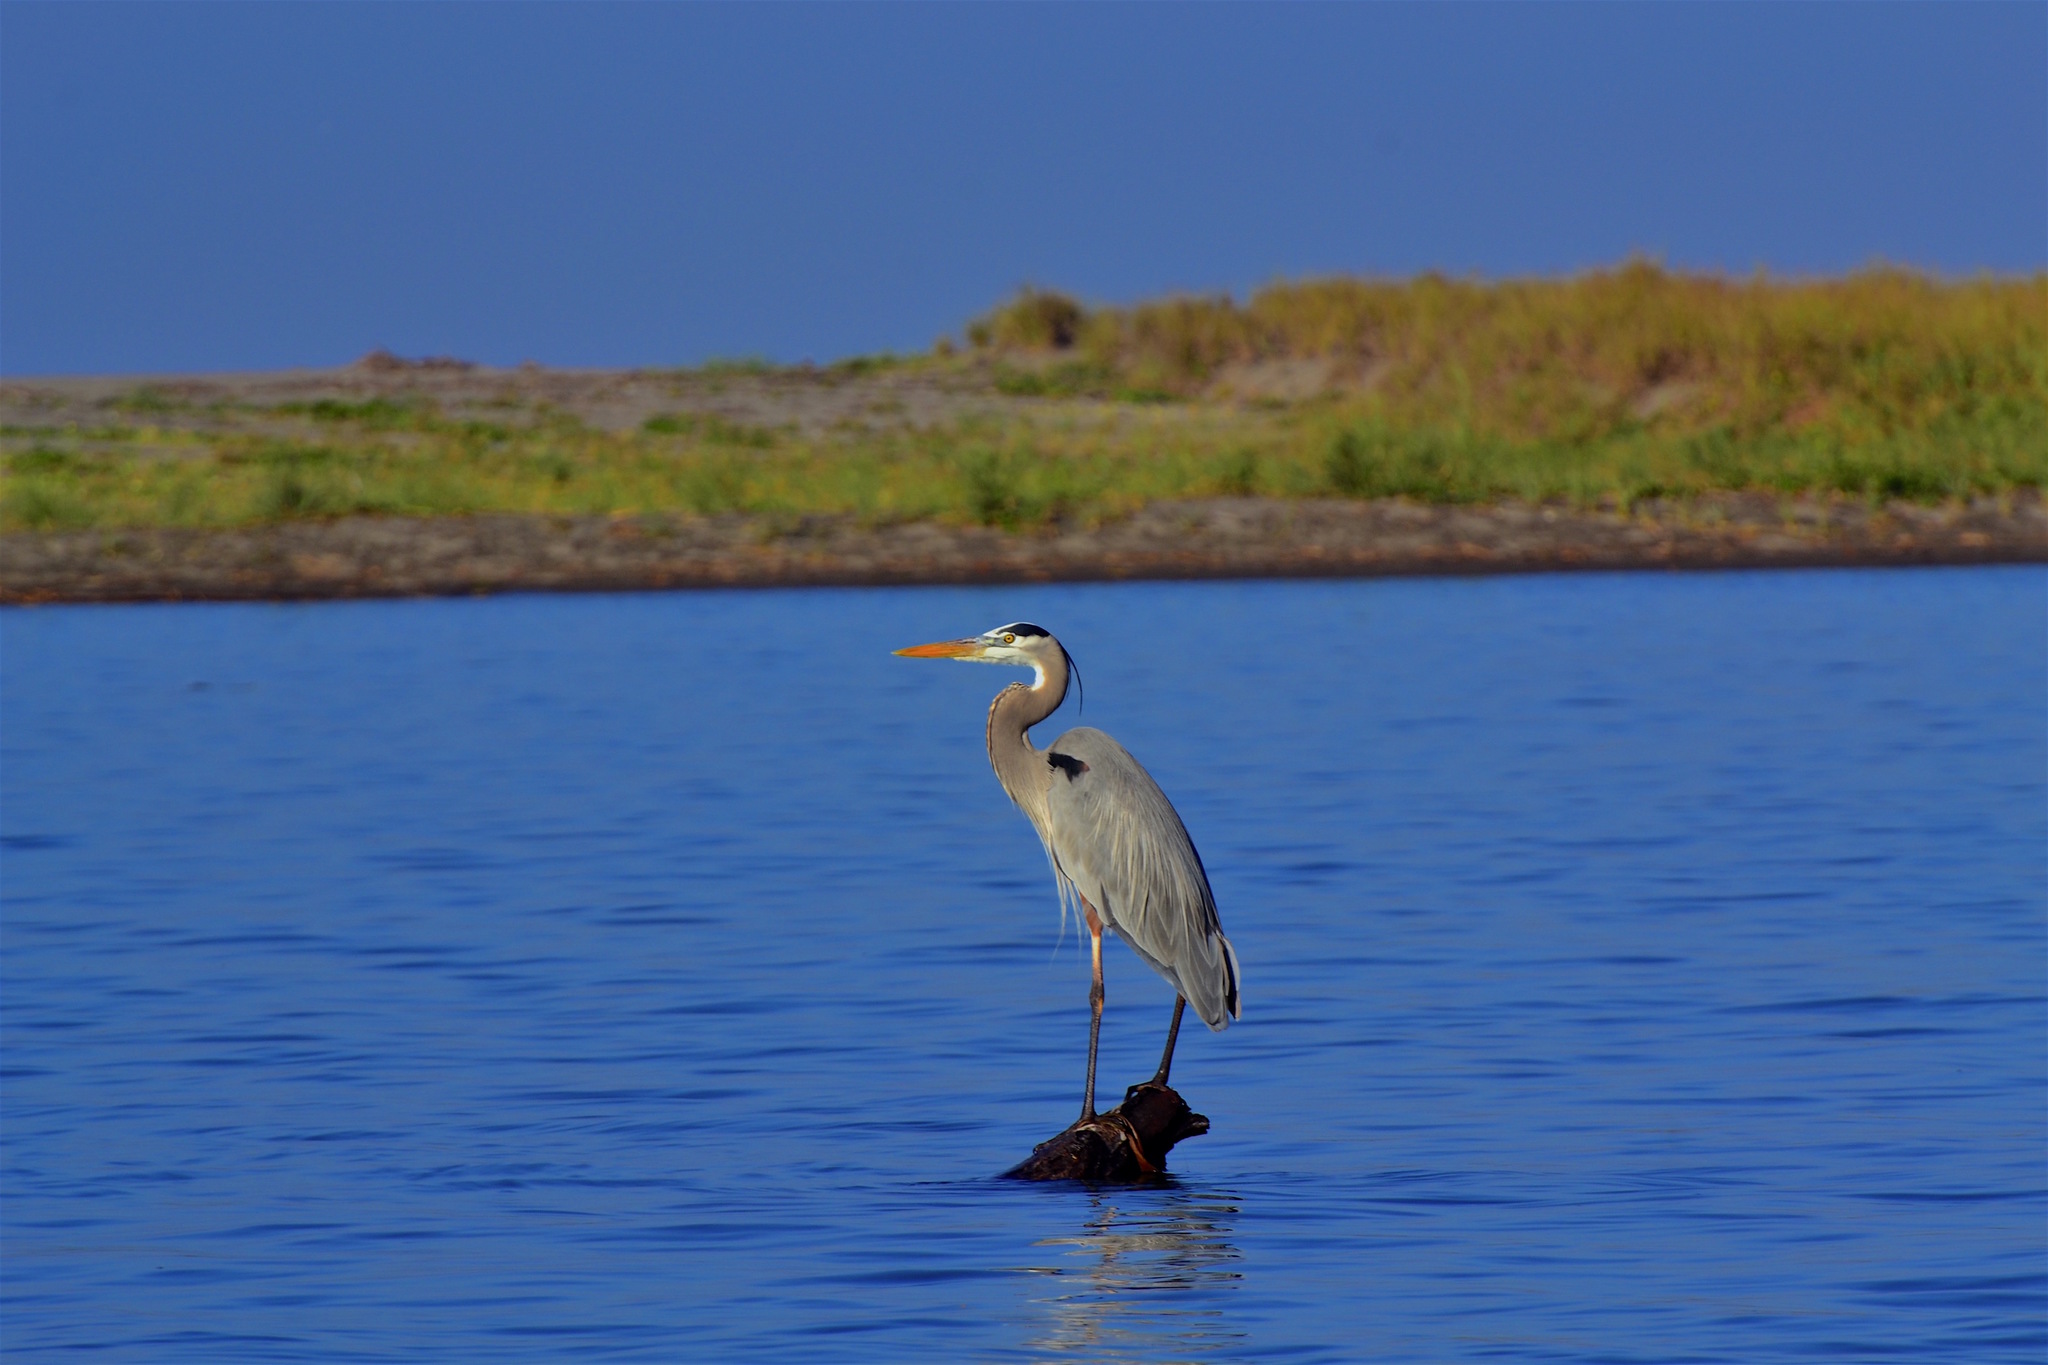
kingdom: Animalia
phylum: Chordata
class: Aves
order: Pelecaniformes
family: Ardeidae
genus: Ardea
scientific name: Ardea herodias
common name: Great blue heron
